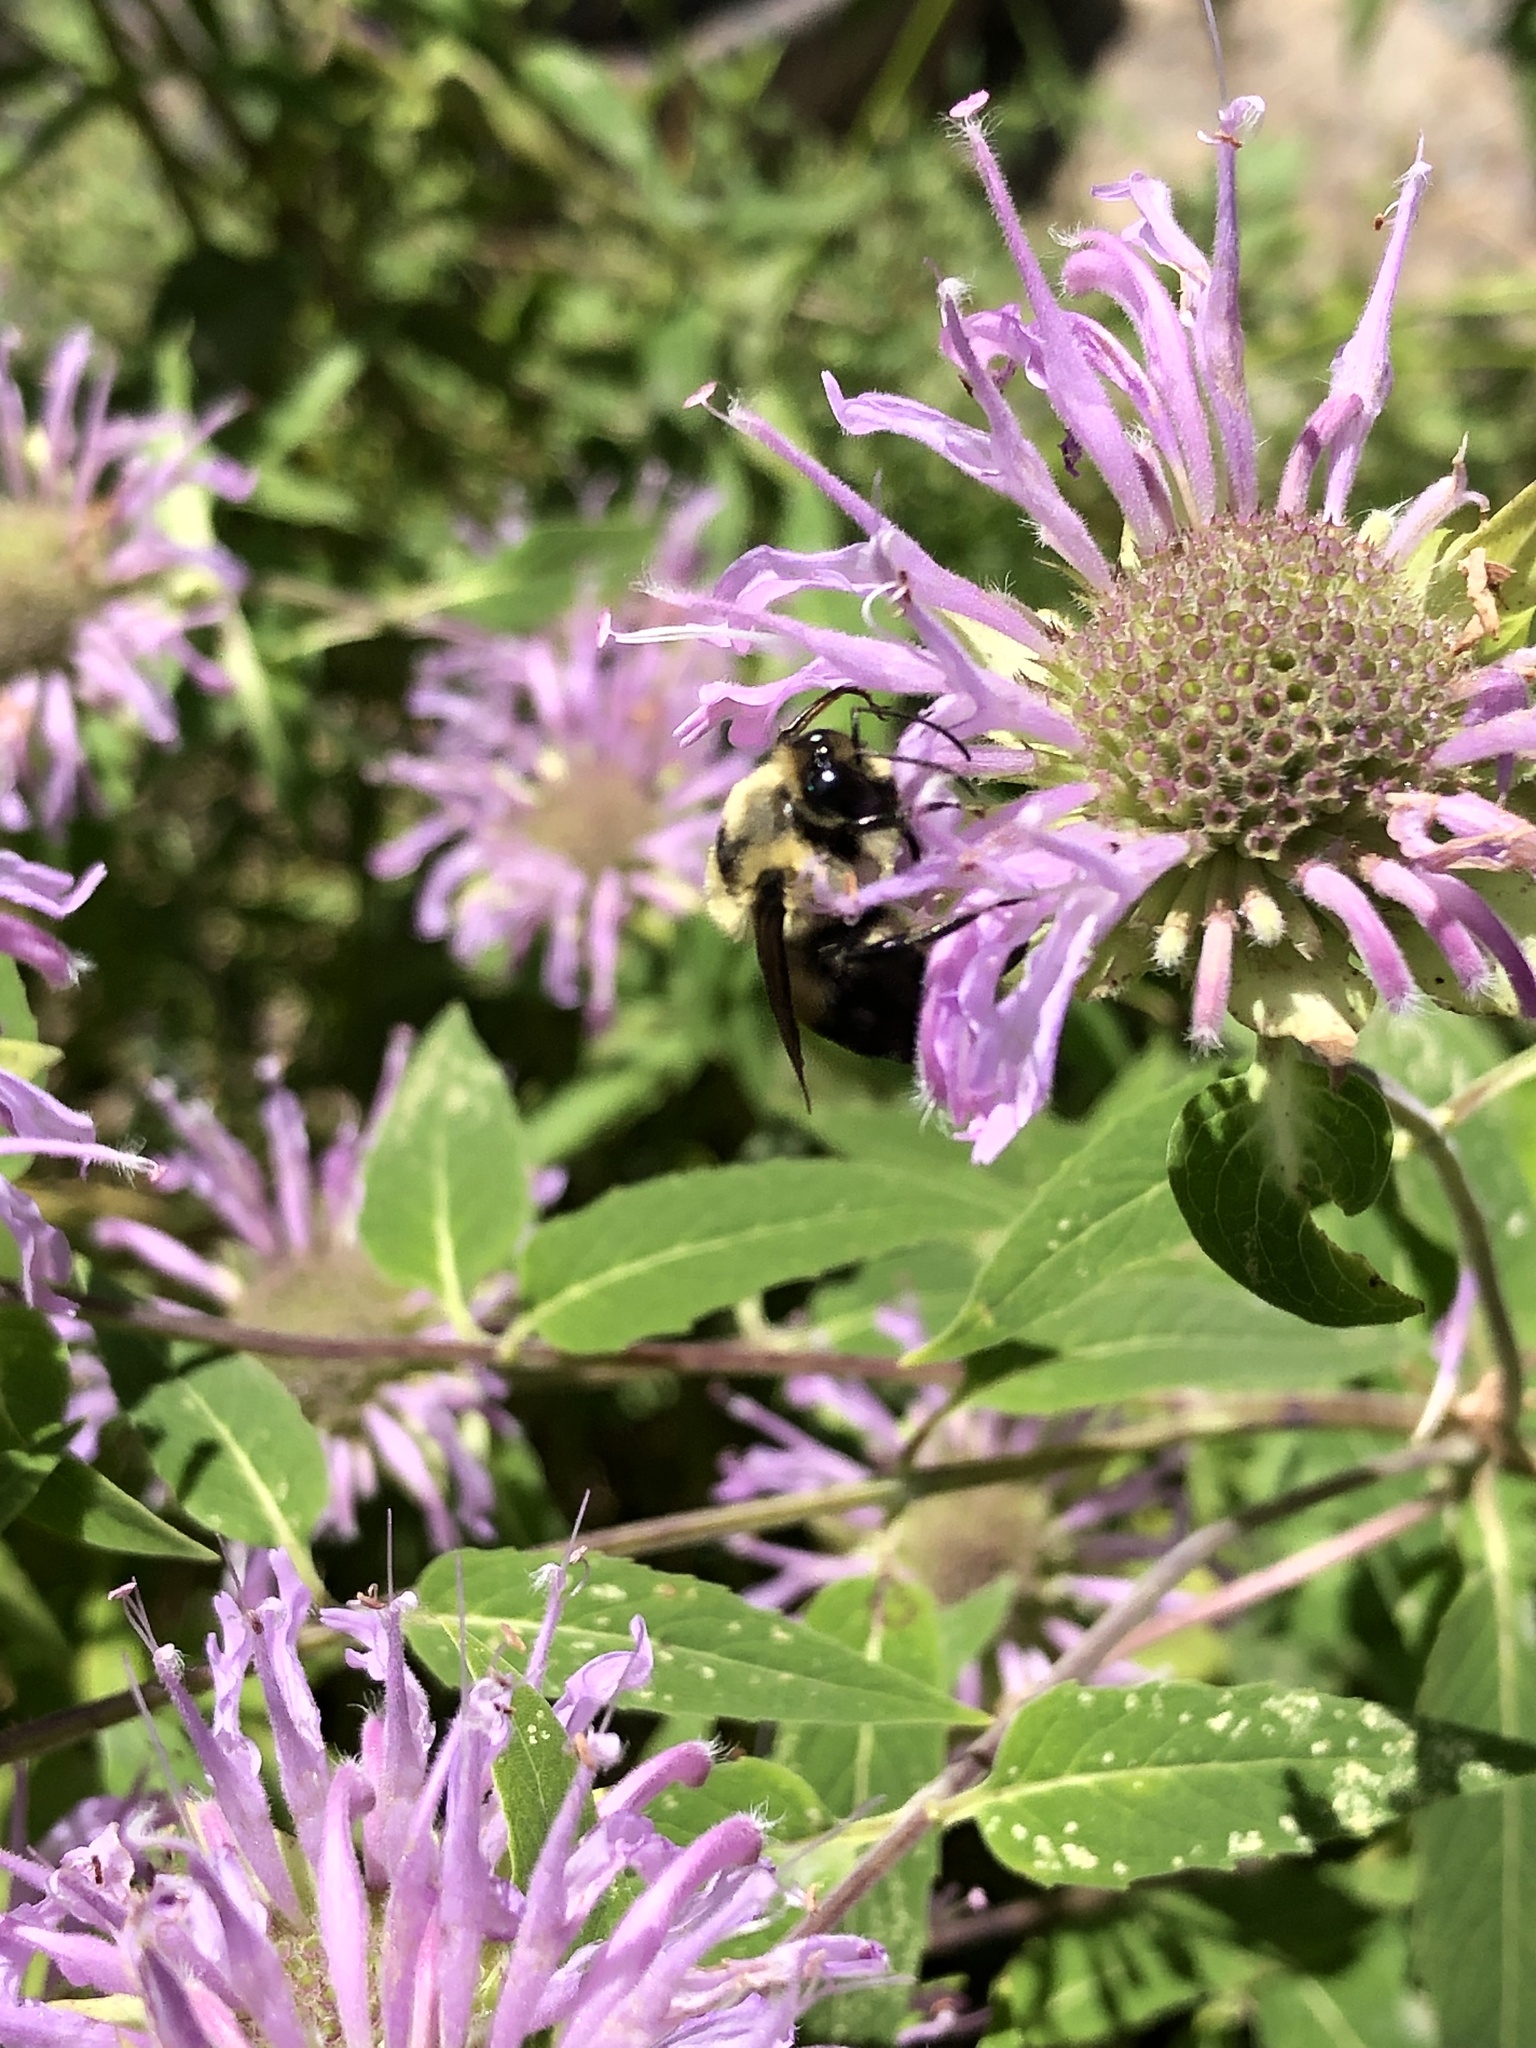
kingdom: Animalia
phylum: Arthropoda
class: Insecta
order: Hymenoptera
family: Apidae
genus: Bombus
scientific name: Bombus griseocollis
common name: Brown-belted bumble bee
